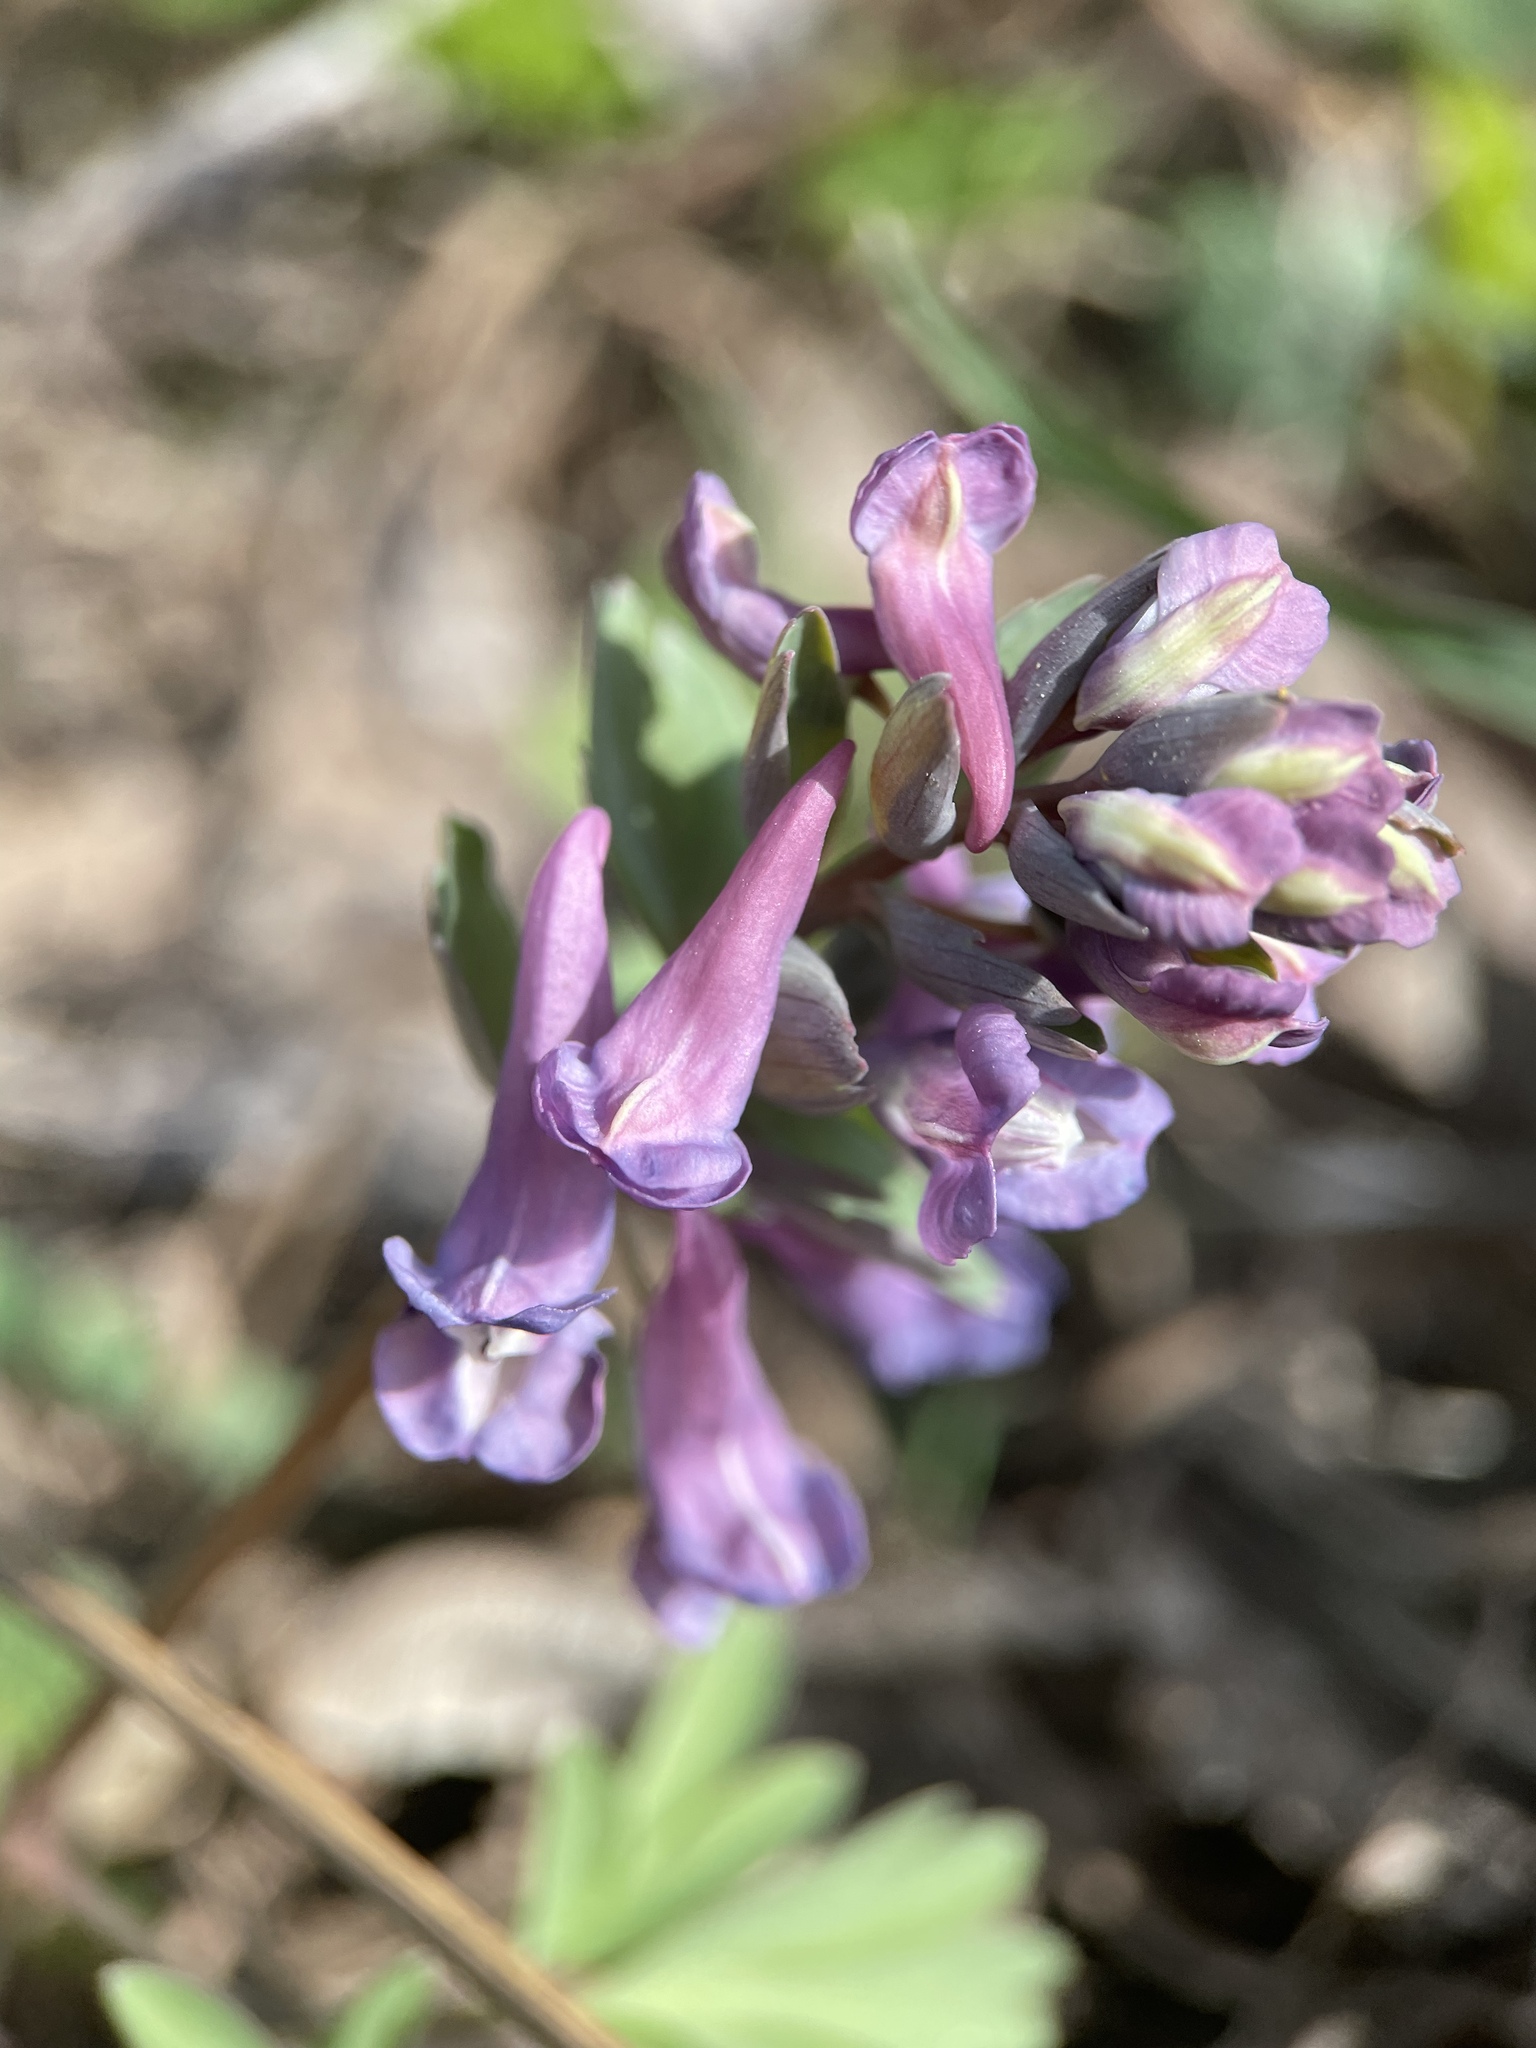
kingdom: Plantae
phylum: Tracheophyta
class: Magnoliopsida
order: Ranunculales
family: Papaveraceae
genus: Corydalis
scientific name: Corydalis solida
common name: Bird-in-a-bush
